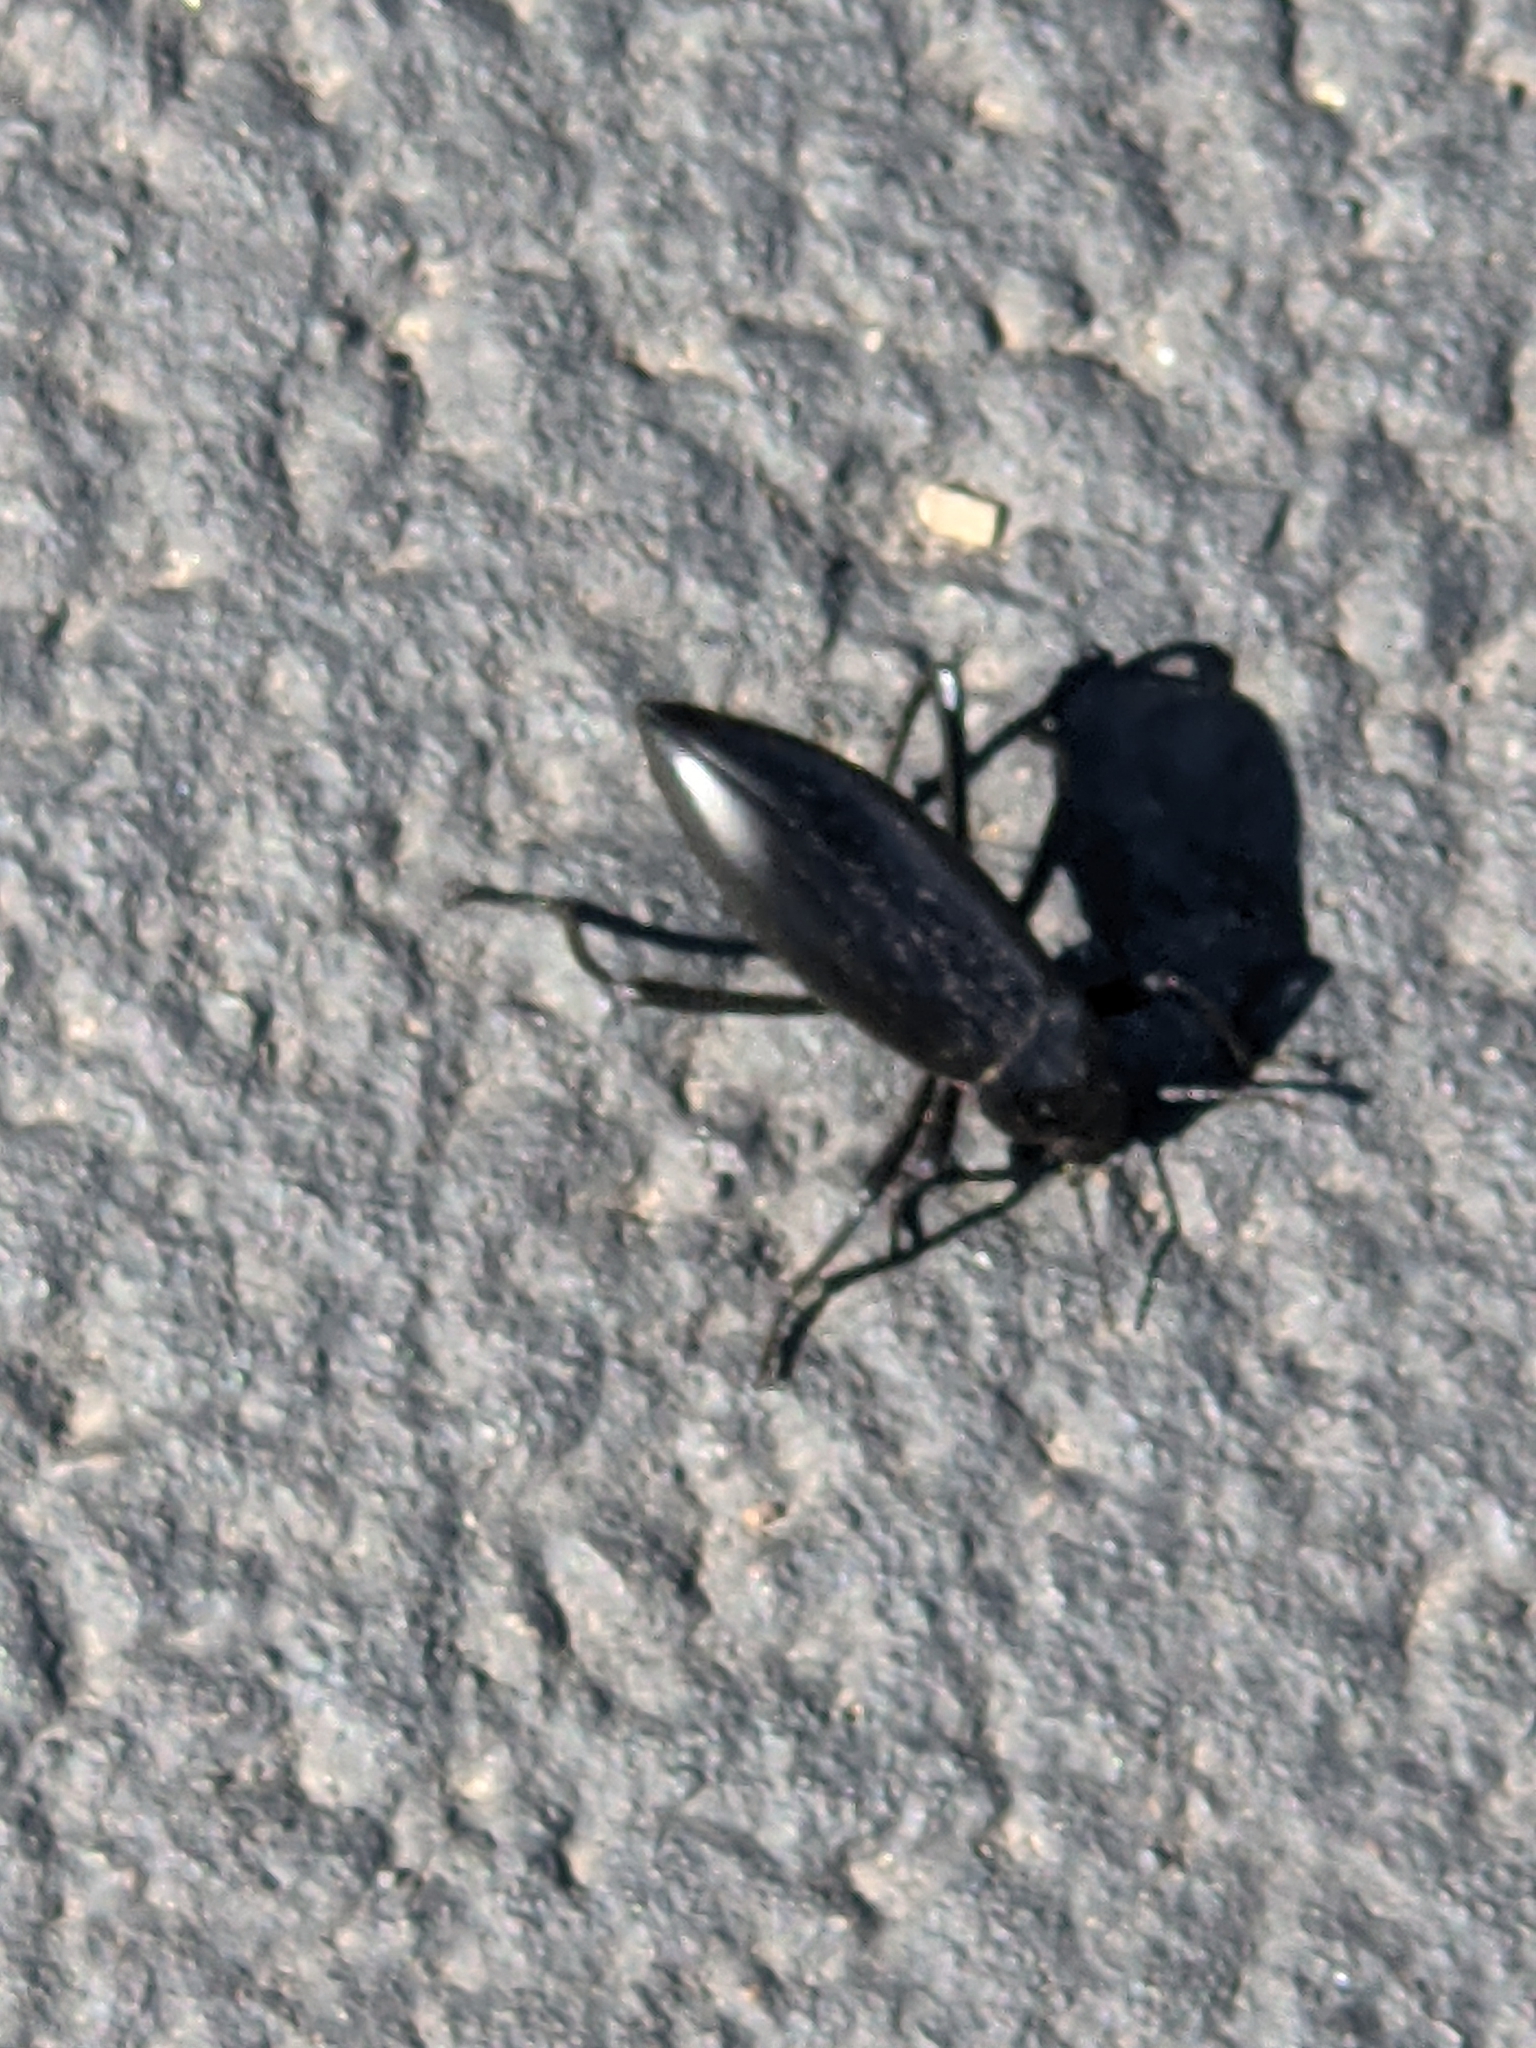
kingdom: Animalia
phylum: Arthropoda
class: Insecta
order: Coleoptera
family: Tenebrionidae
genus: Eleodes
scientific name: Eleodes longicollis
